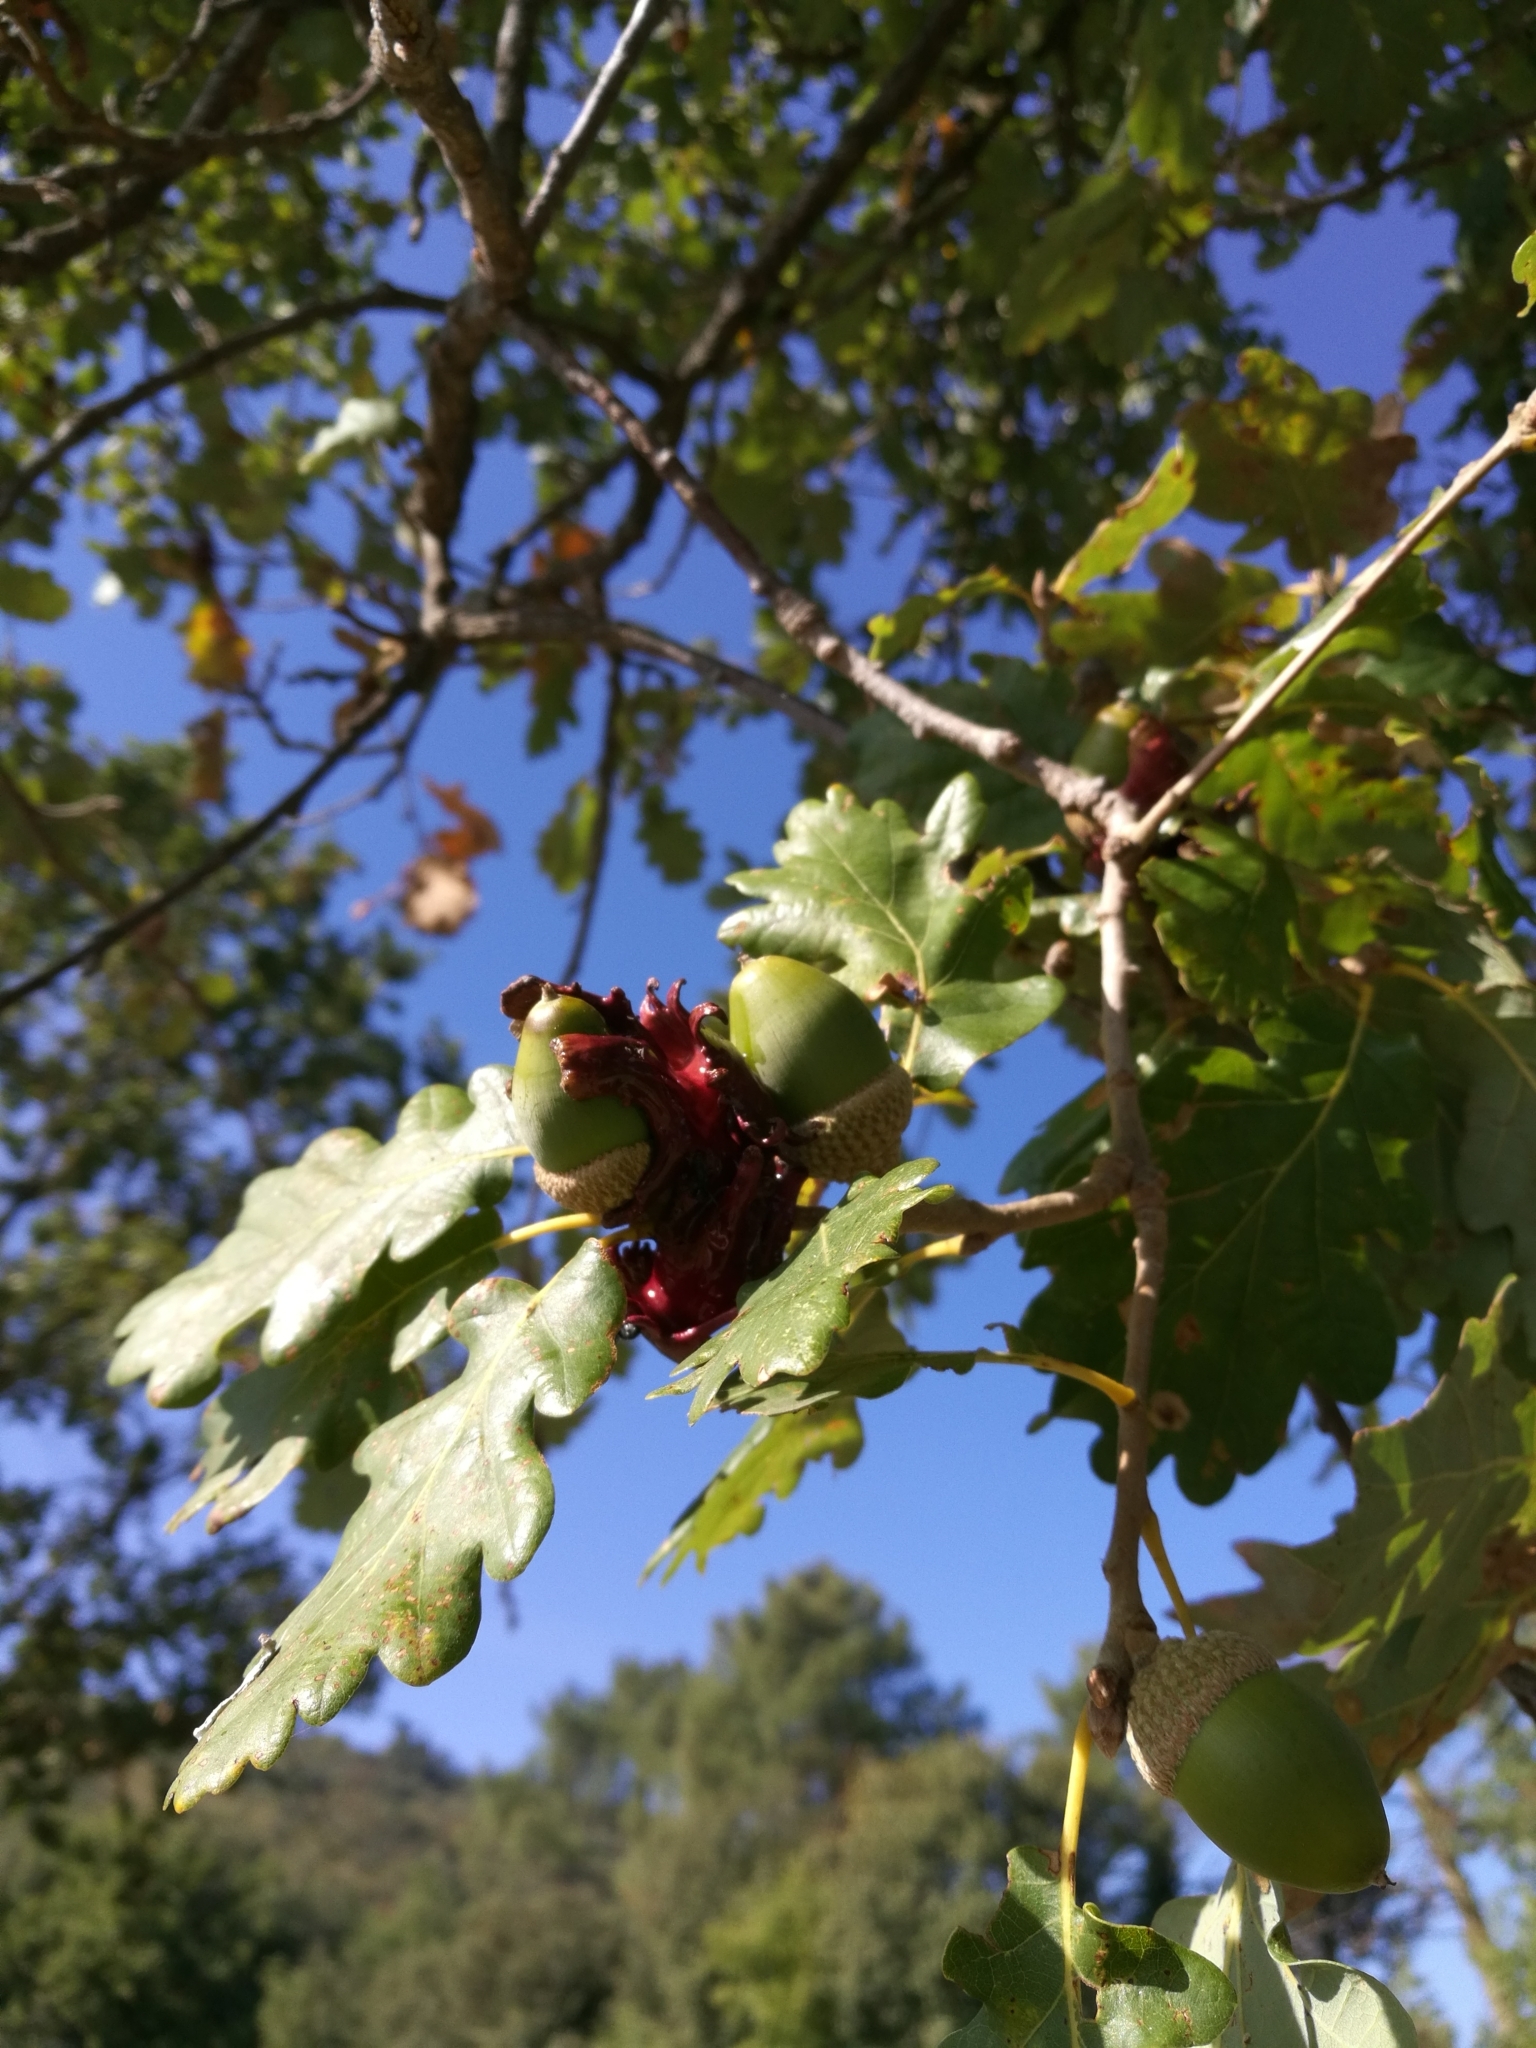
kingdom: Animalia
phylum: Arthropoda
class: Insecta
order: Hymenoptera
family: Cynipidae
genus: Andricus
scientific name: Andricus dentimitratus
